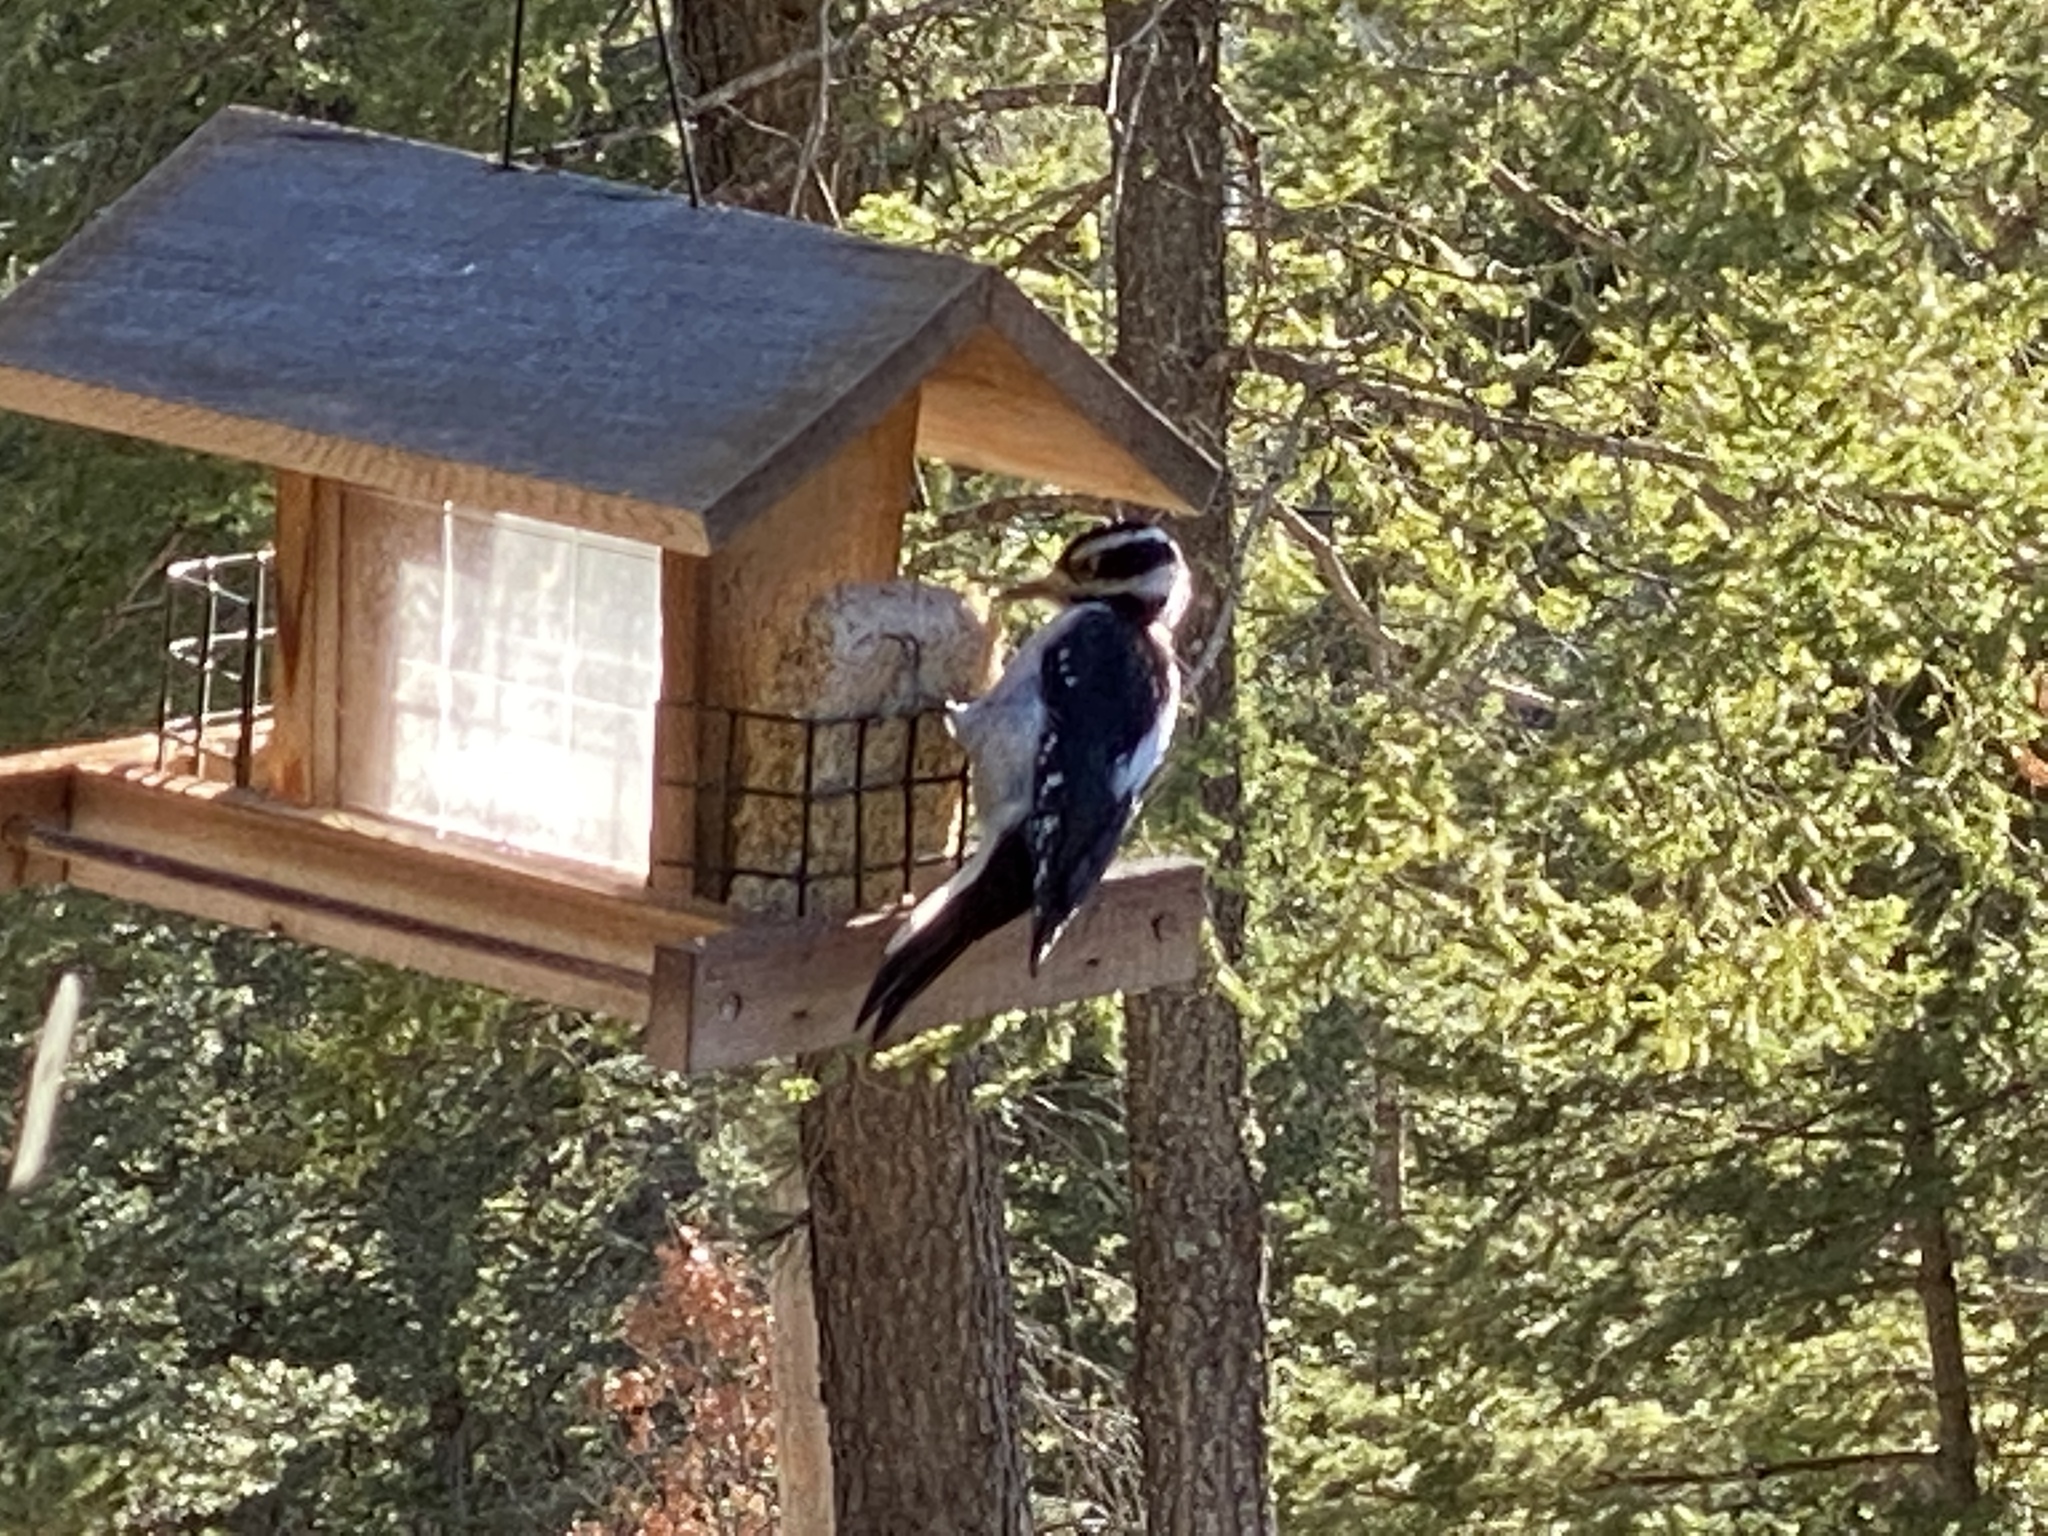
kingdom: Animalia
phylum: Chordata
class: Aves
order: Piciformes
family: Picidae
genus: Leuconotopicus
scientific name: Leuconotopicus villosus
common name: Hairy woodpecker
